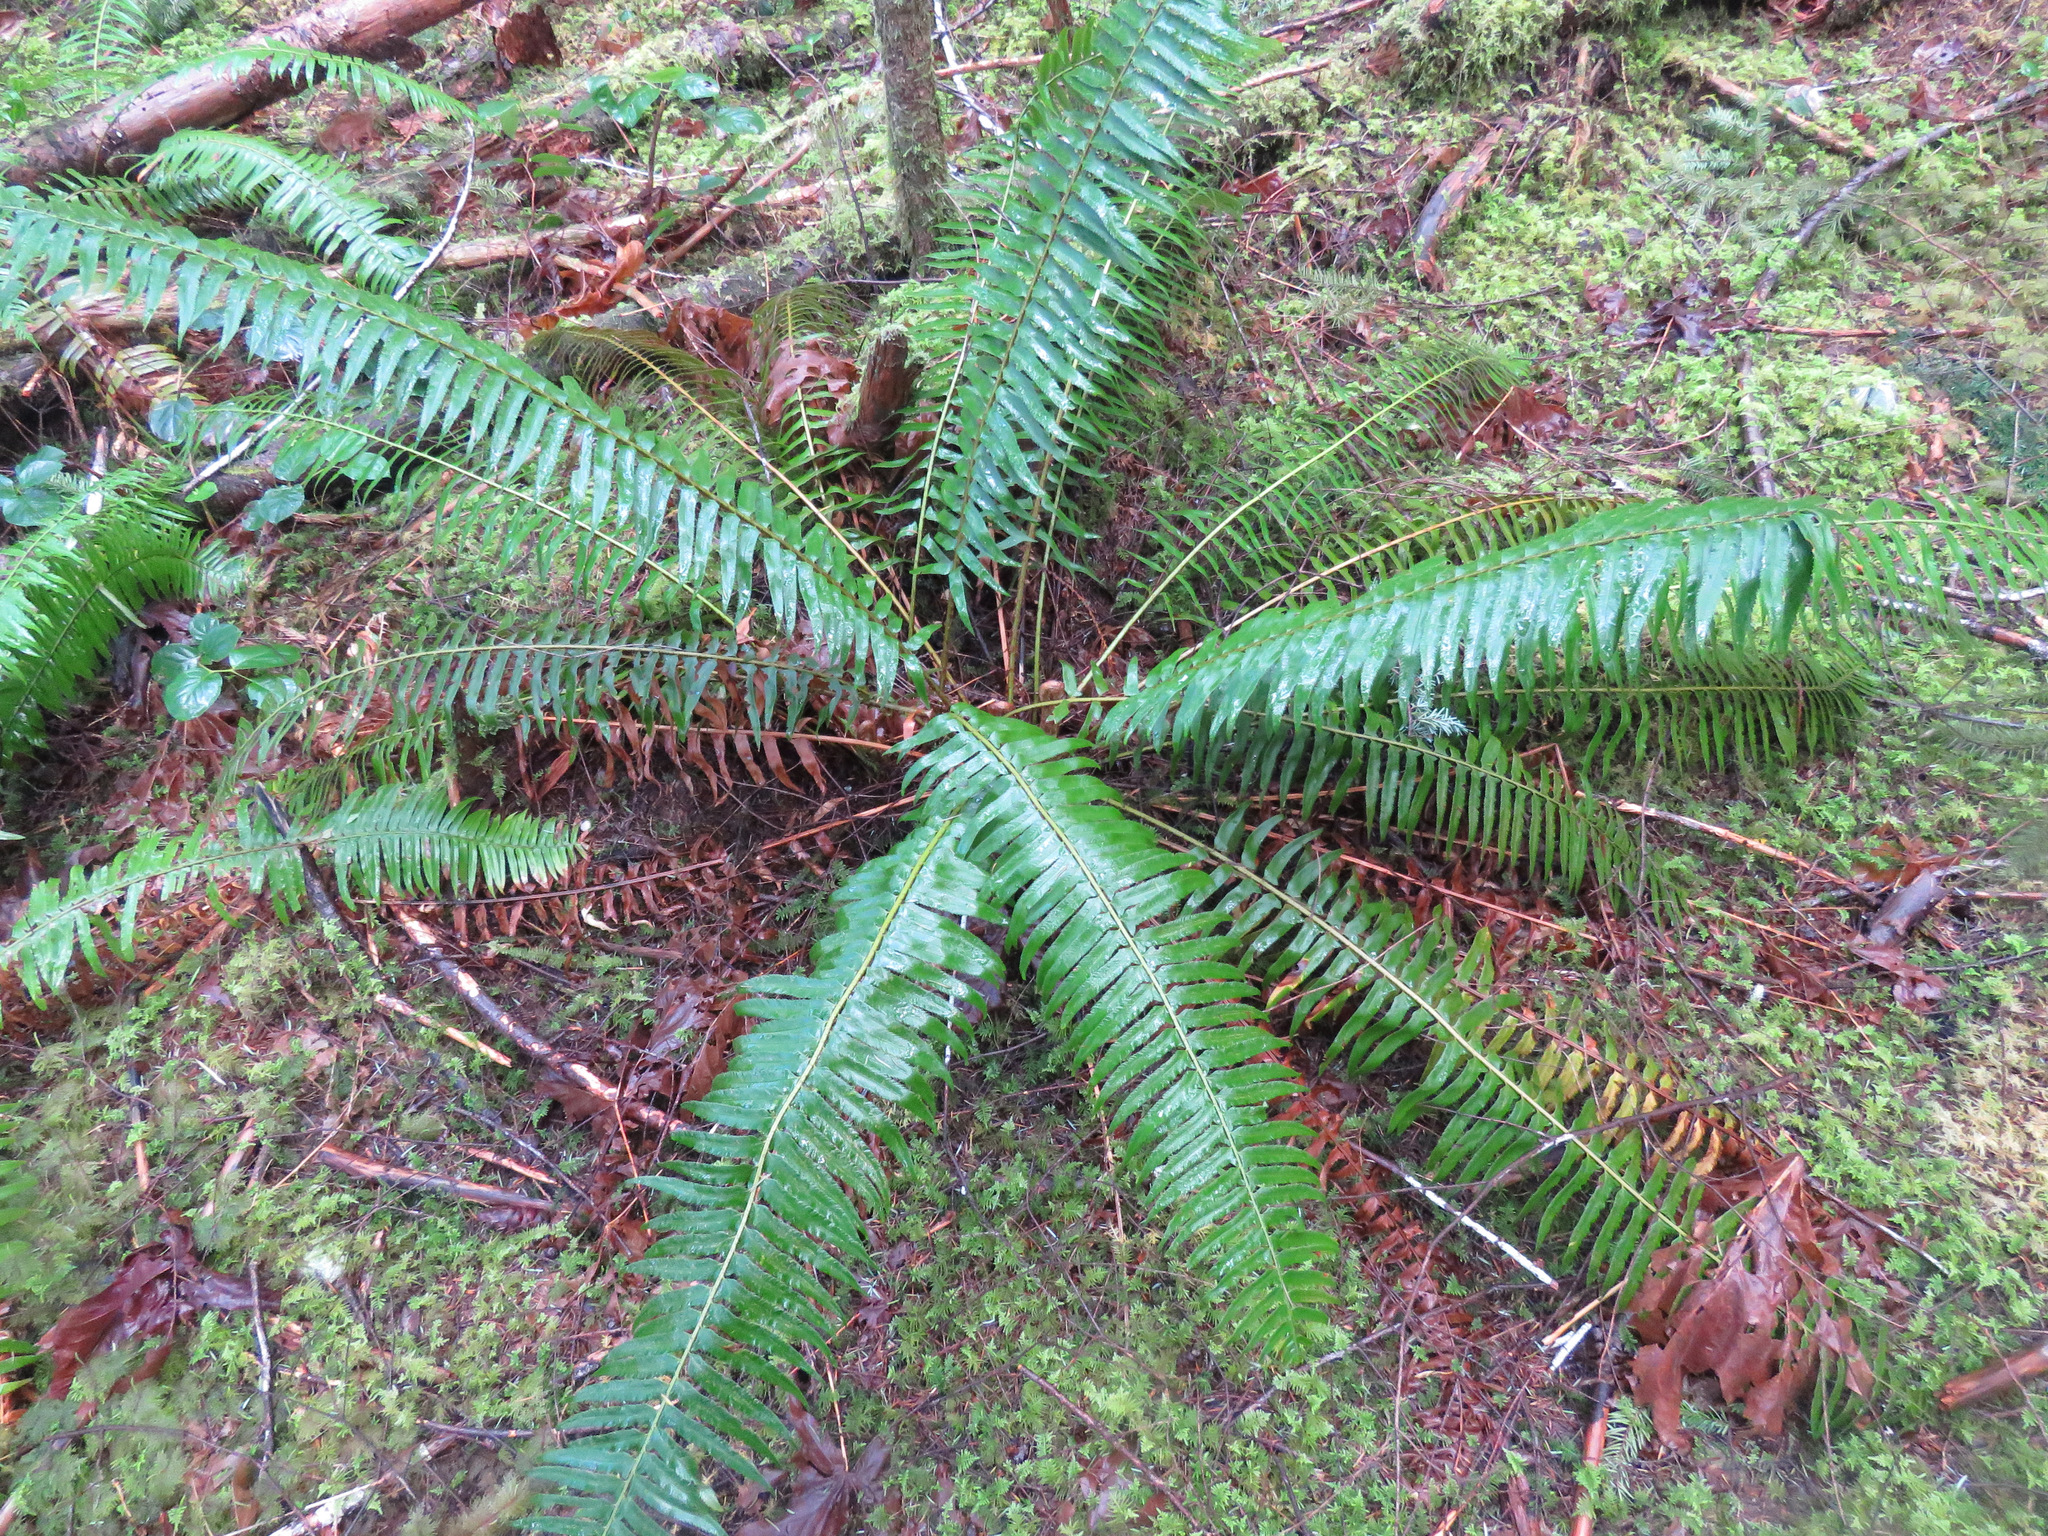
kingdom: Plantae
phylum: Tracheophyta
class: Polypodiopsida
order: Polypodiales
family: Dryopteridaceae
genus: Polystichum
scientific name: Polystichum munitum
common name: Western sword-fern
